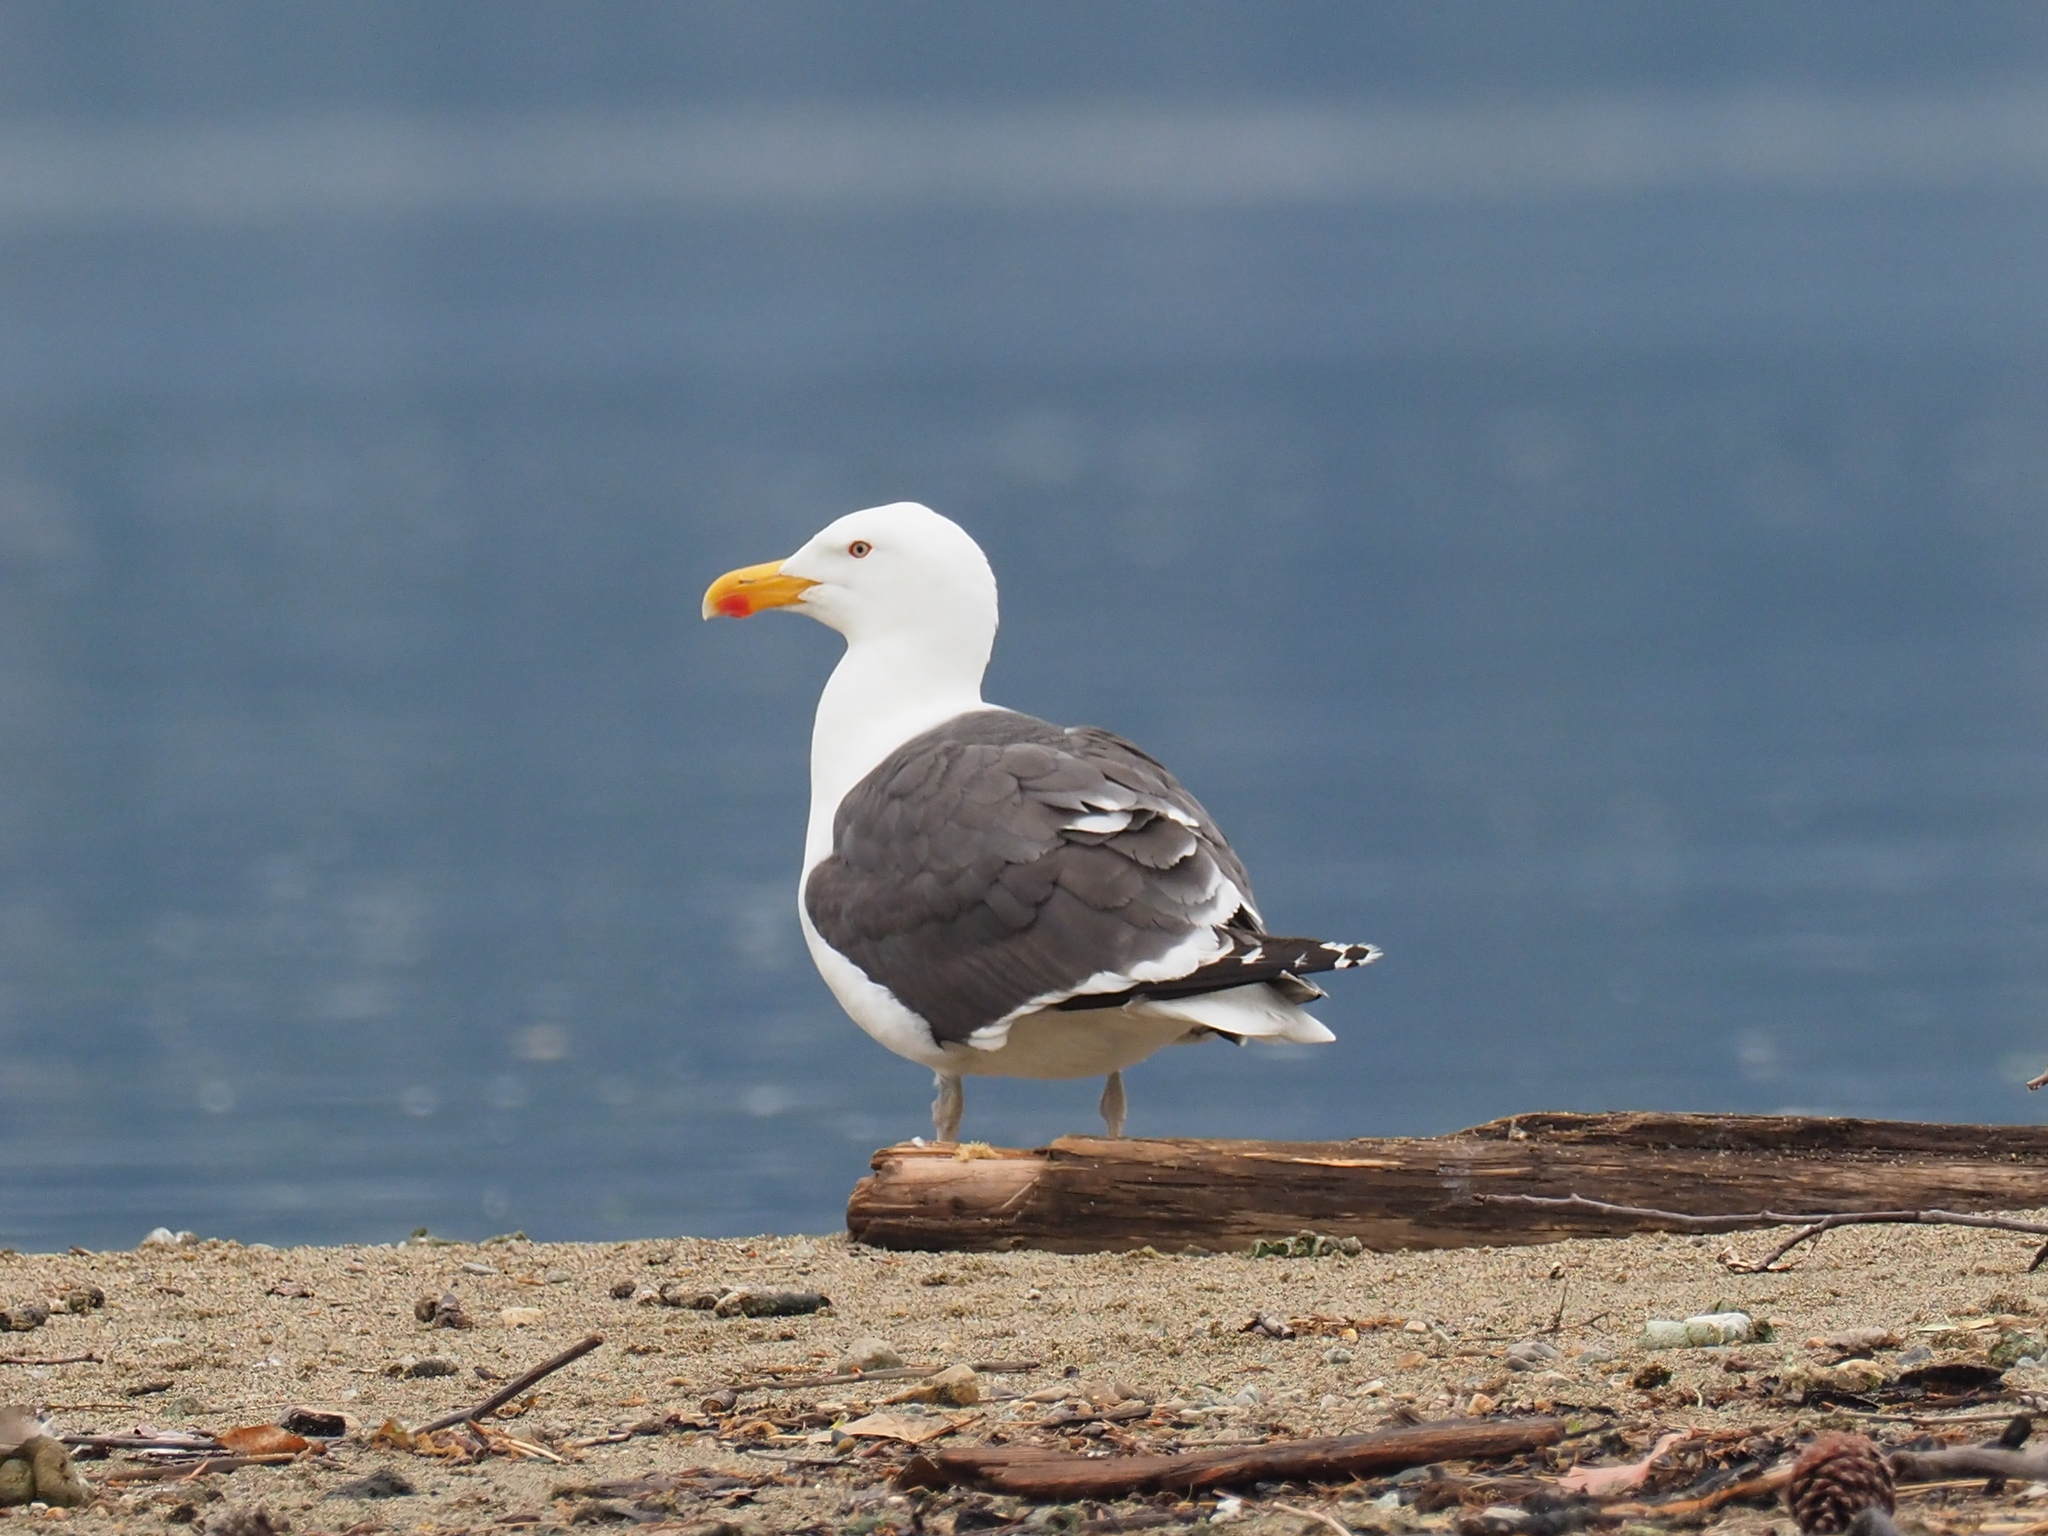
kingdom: Animalia
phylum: Chordata
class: Aves
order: Charadriiformes
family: Laridae
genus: Larus
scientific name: Larus marinus
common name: Great black-backed gull
